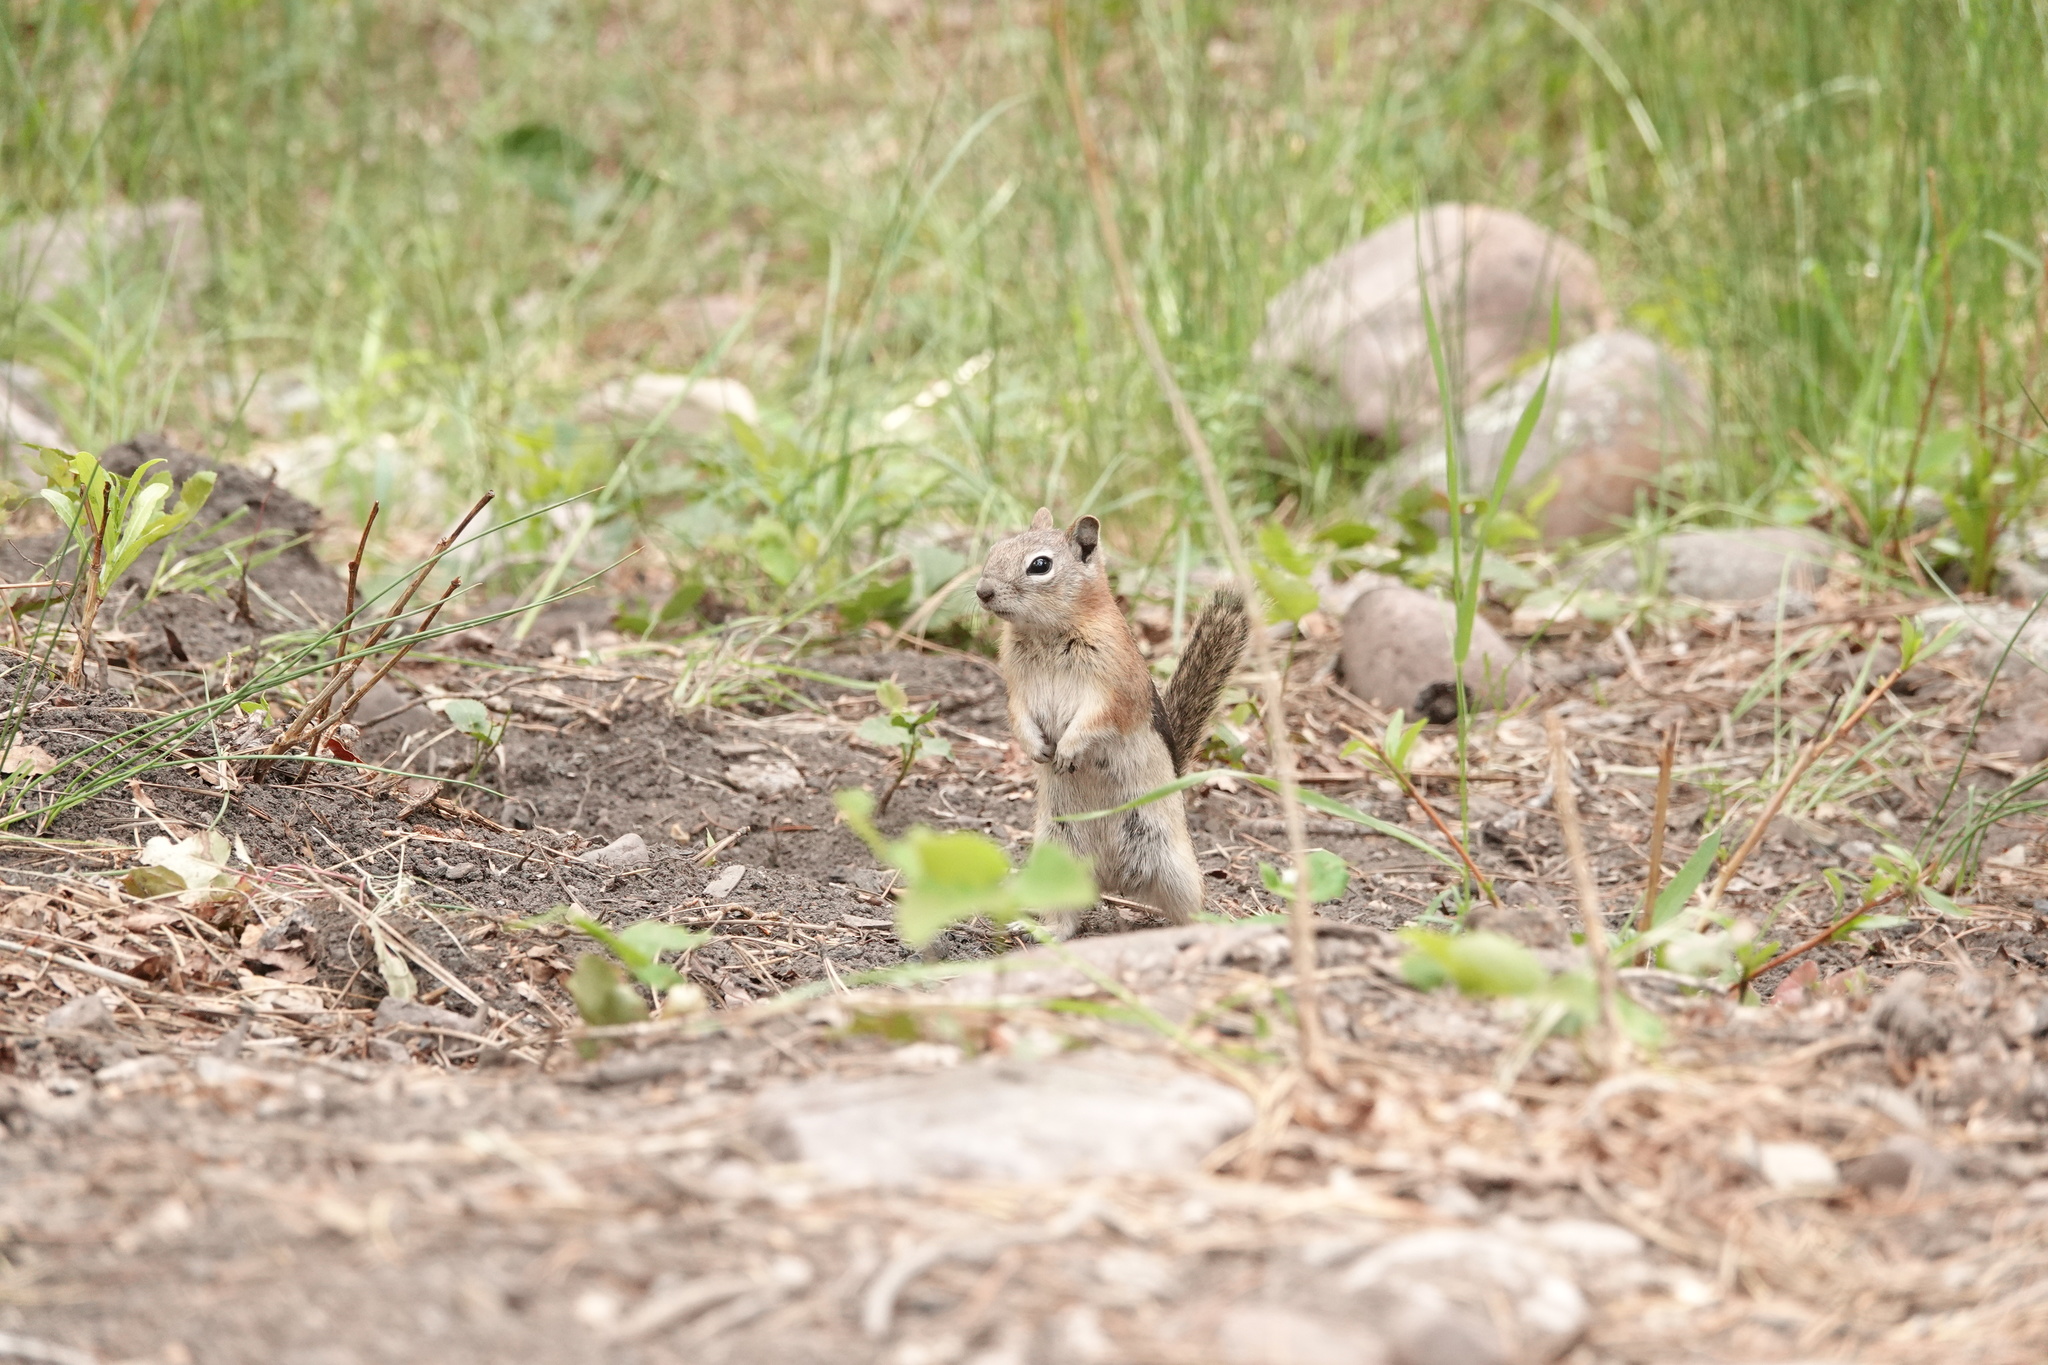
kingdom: Animalia
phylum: Chordata
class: Mammalia
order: Rodentia
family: Sciuridae
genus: Callospermophilus
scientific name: Callospermophilus lateralis
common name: Golden-mantled ground squirrel
